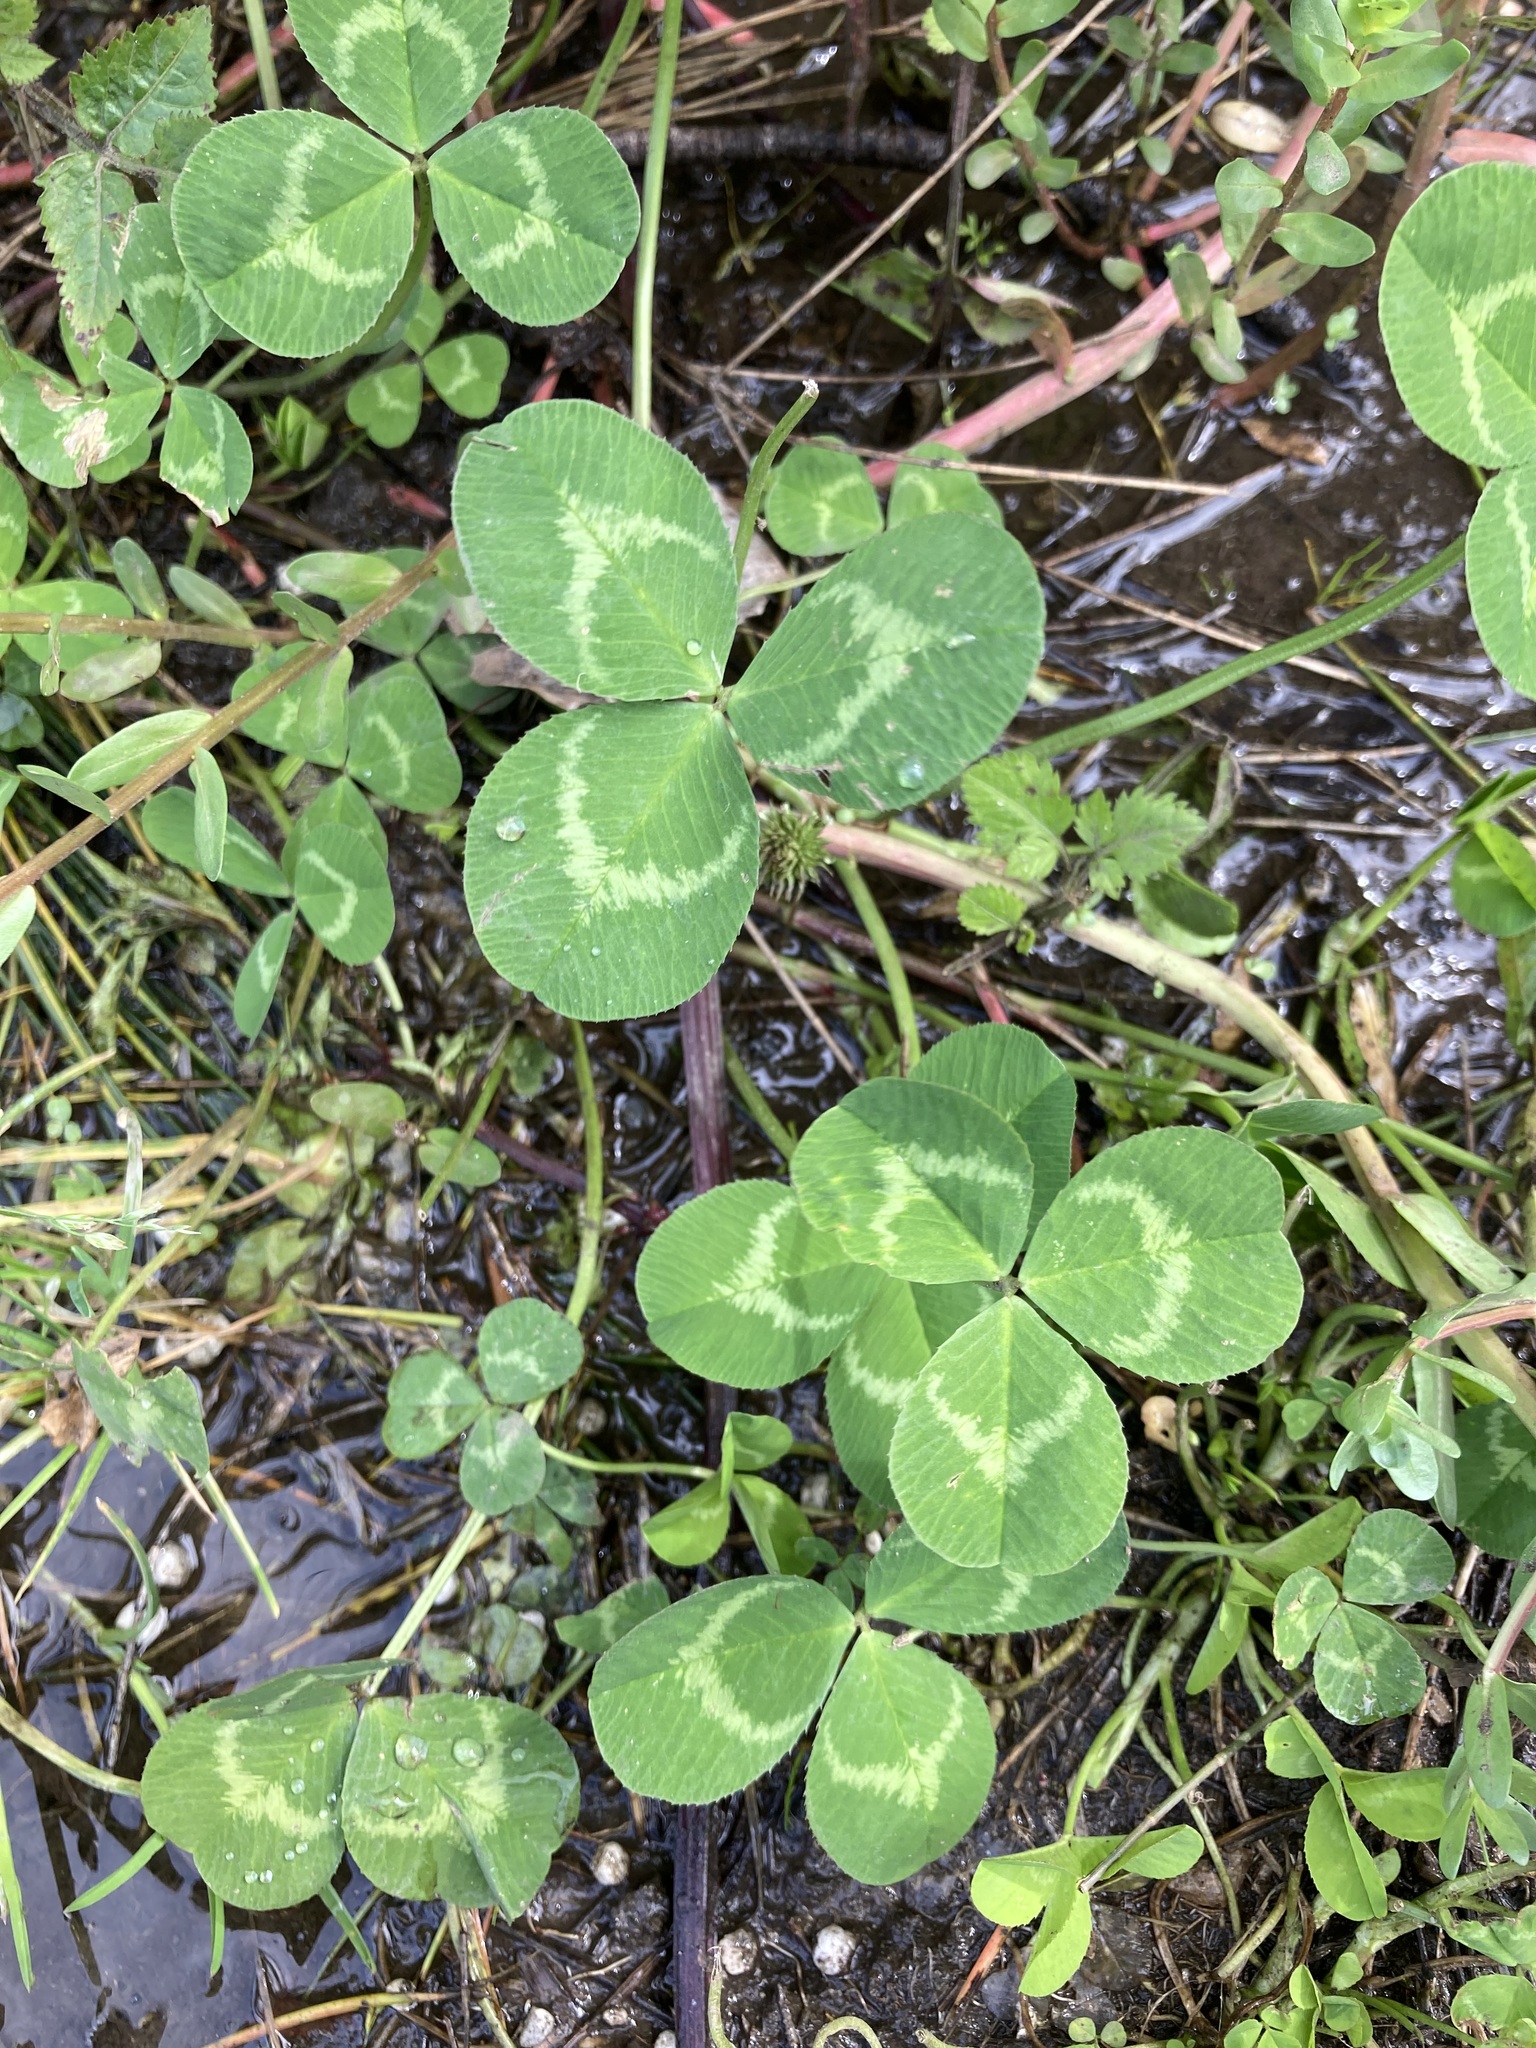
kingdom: Plantae
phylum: Tracheophyta
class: Magnoliopsida
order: Fabales
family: Fabaceae
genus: Trifolium
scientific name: Trifolium repens
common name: White clover
